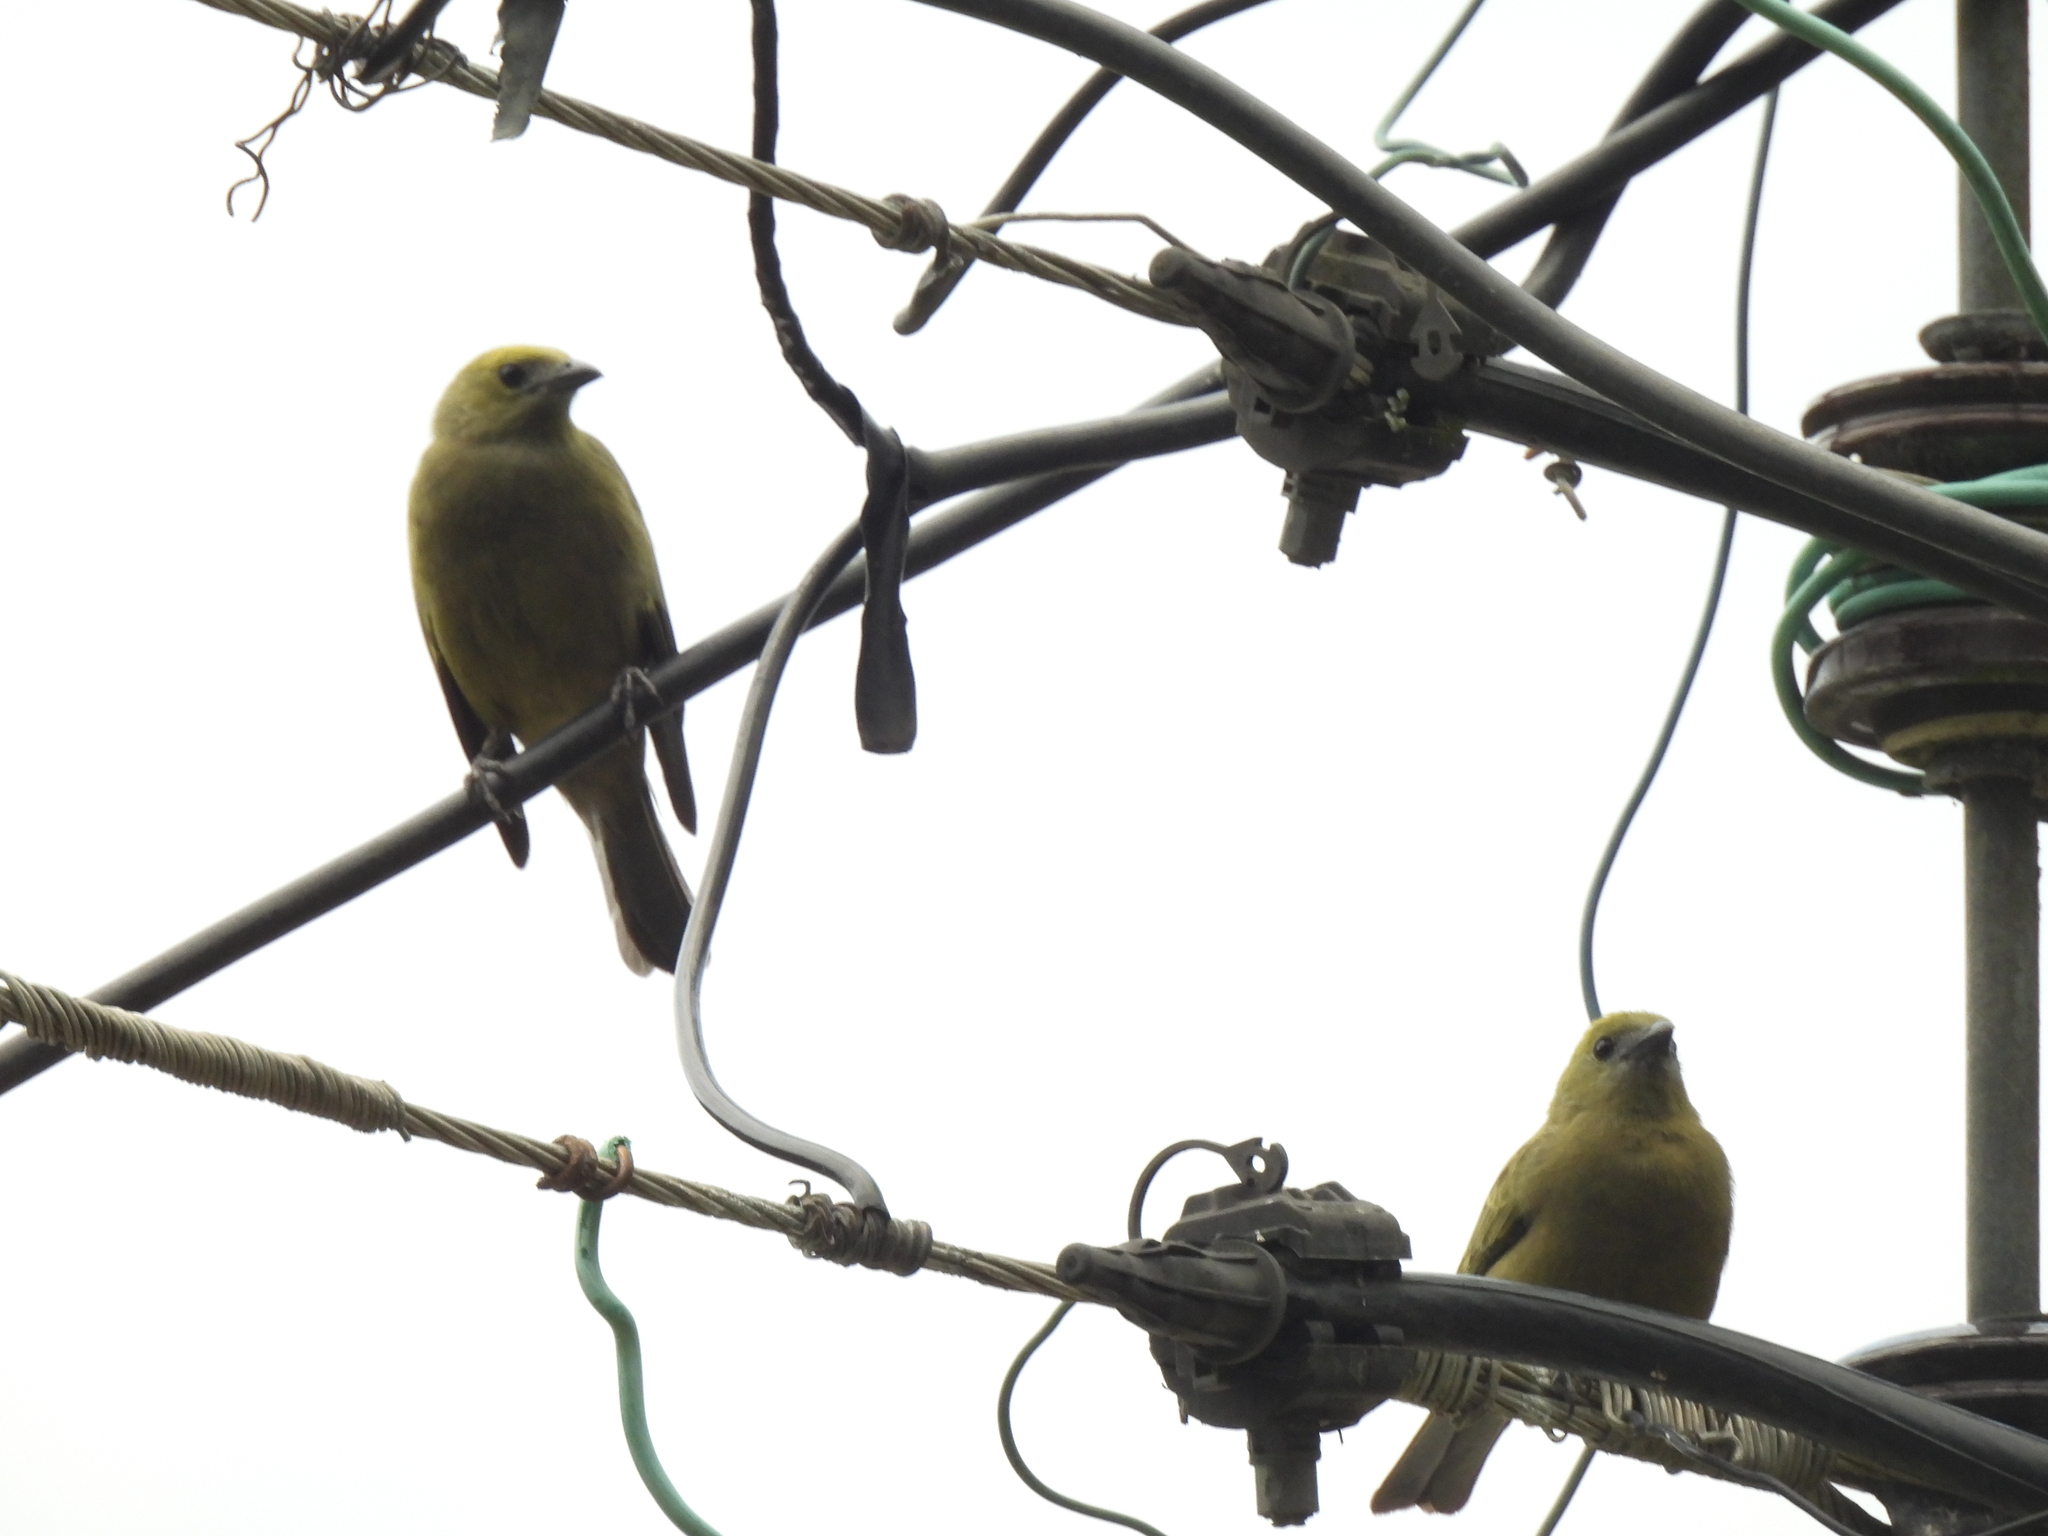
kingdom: Animalia
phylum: Chordata
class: Aves
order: Passeriformes
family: Thraupidae
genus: Thraupis
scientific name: Thraupis palmarum
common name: Palm tanager
